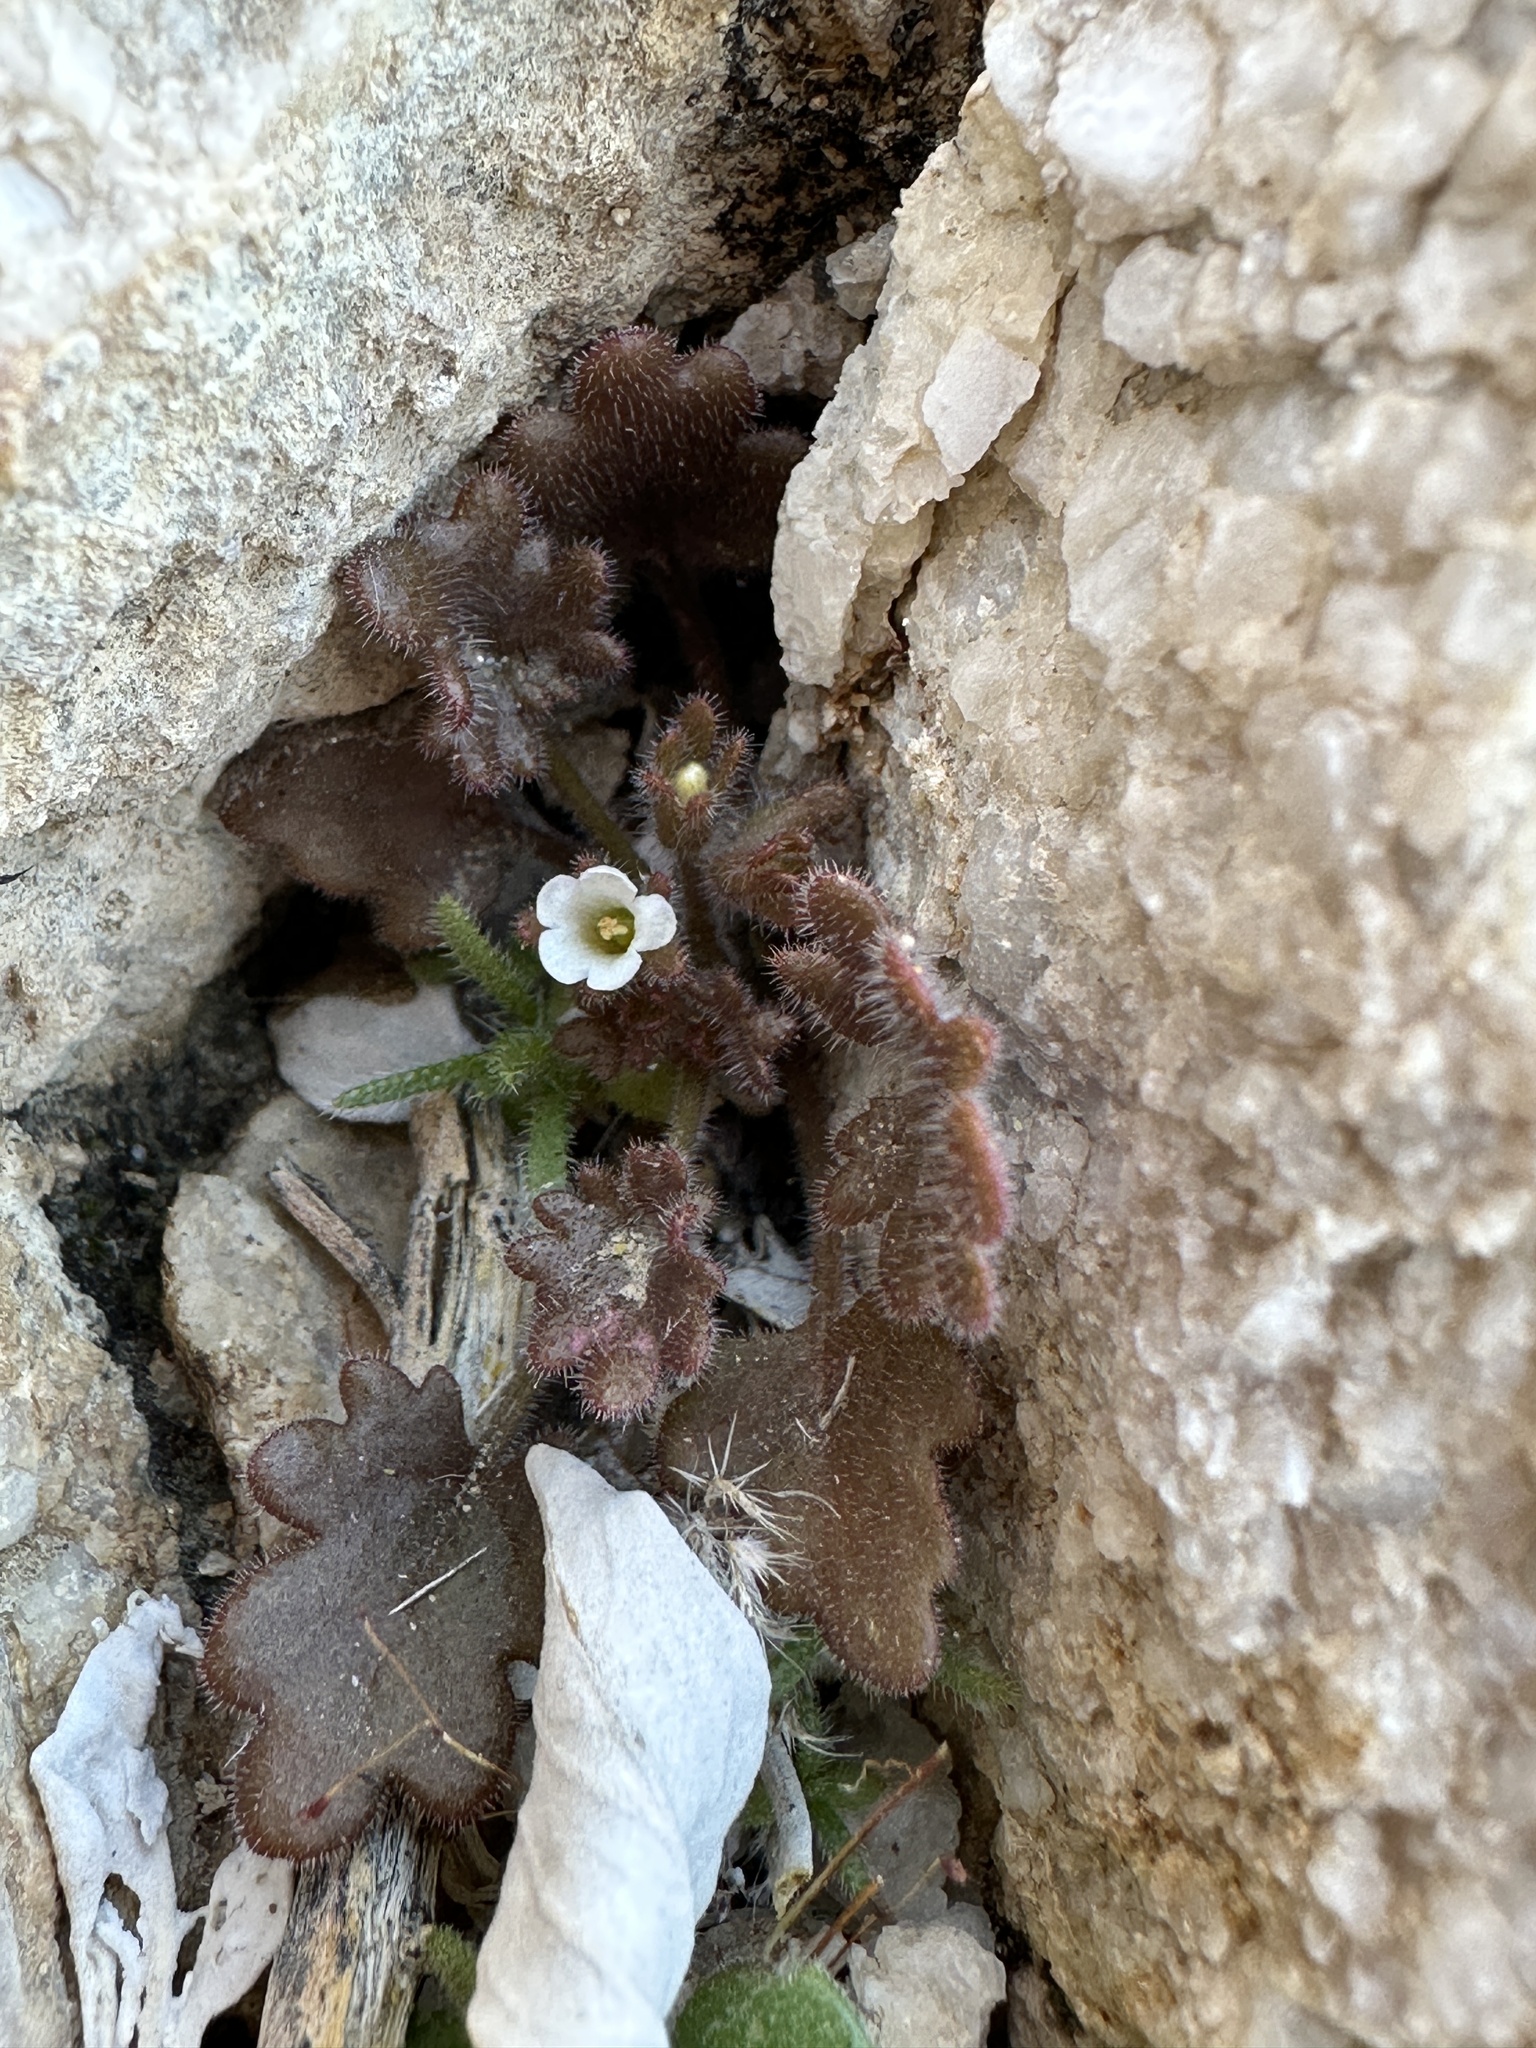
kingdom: Plantae
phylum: Tracheophyta
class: Magnoliopsida
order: Boraginales
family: Hydrophyllaceae
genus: Phacelia
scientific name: Phacelia rotundifolia
